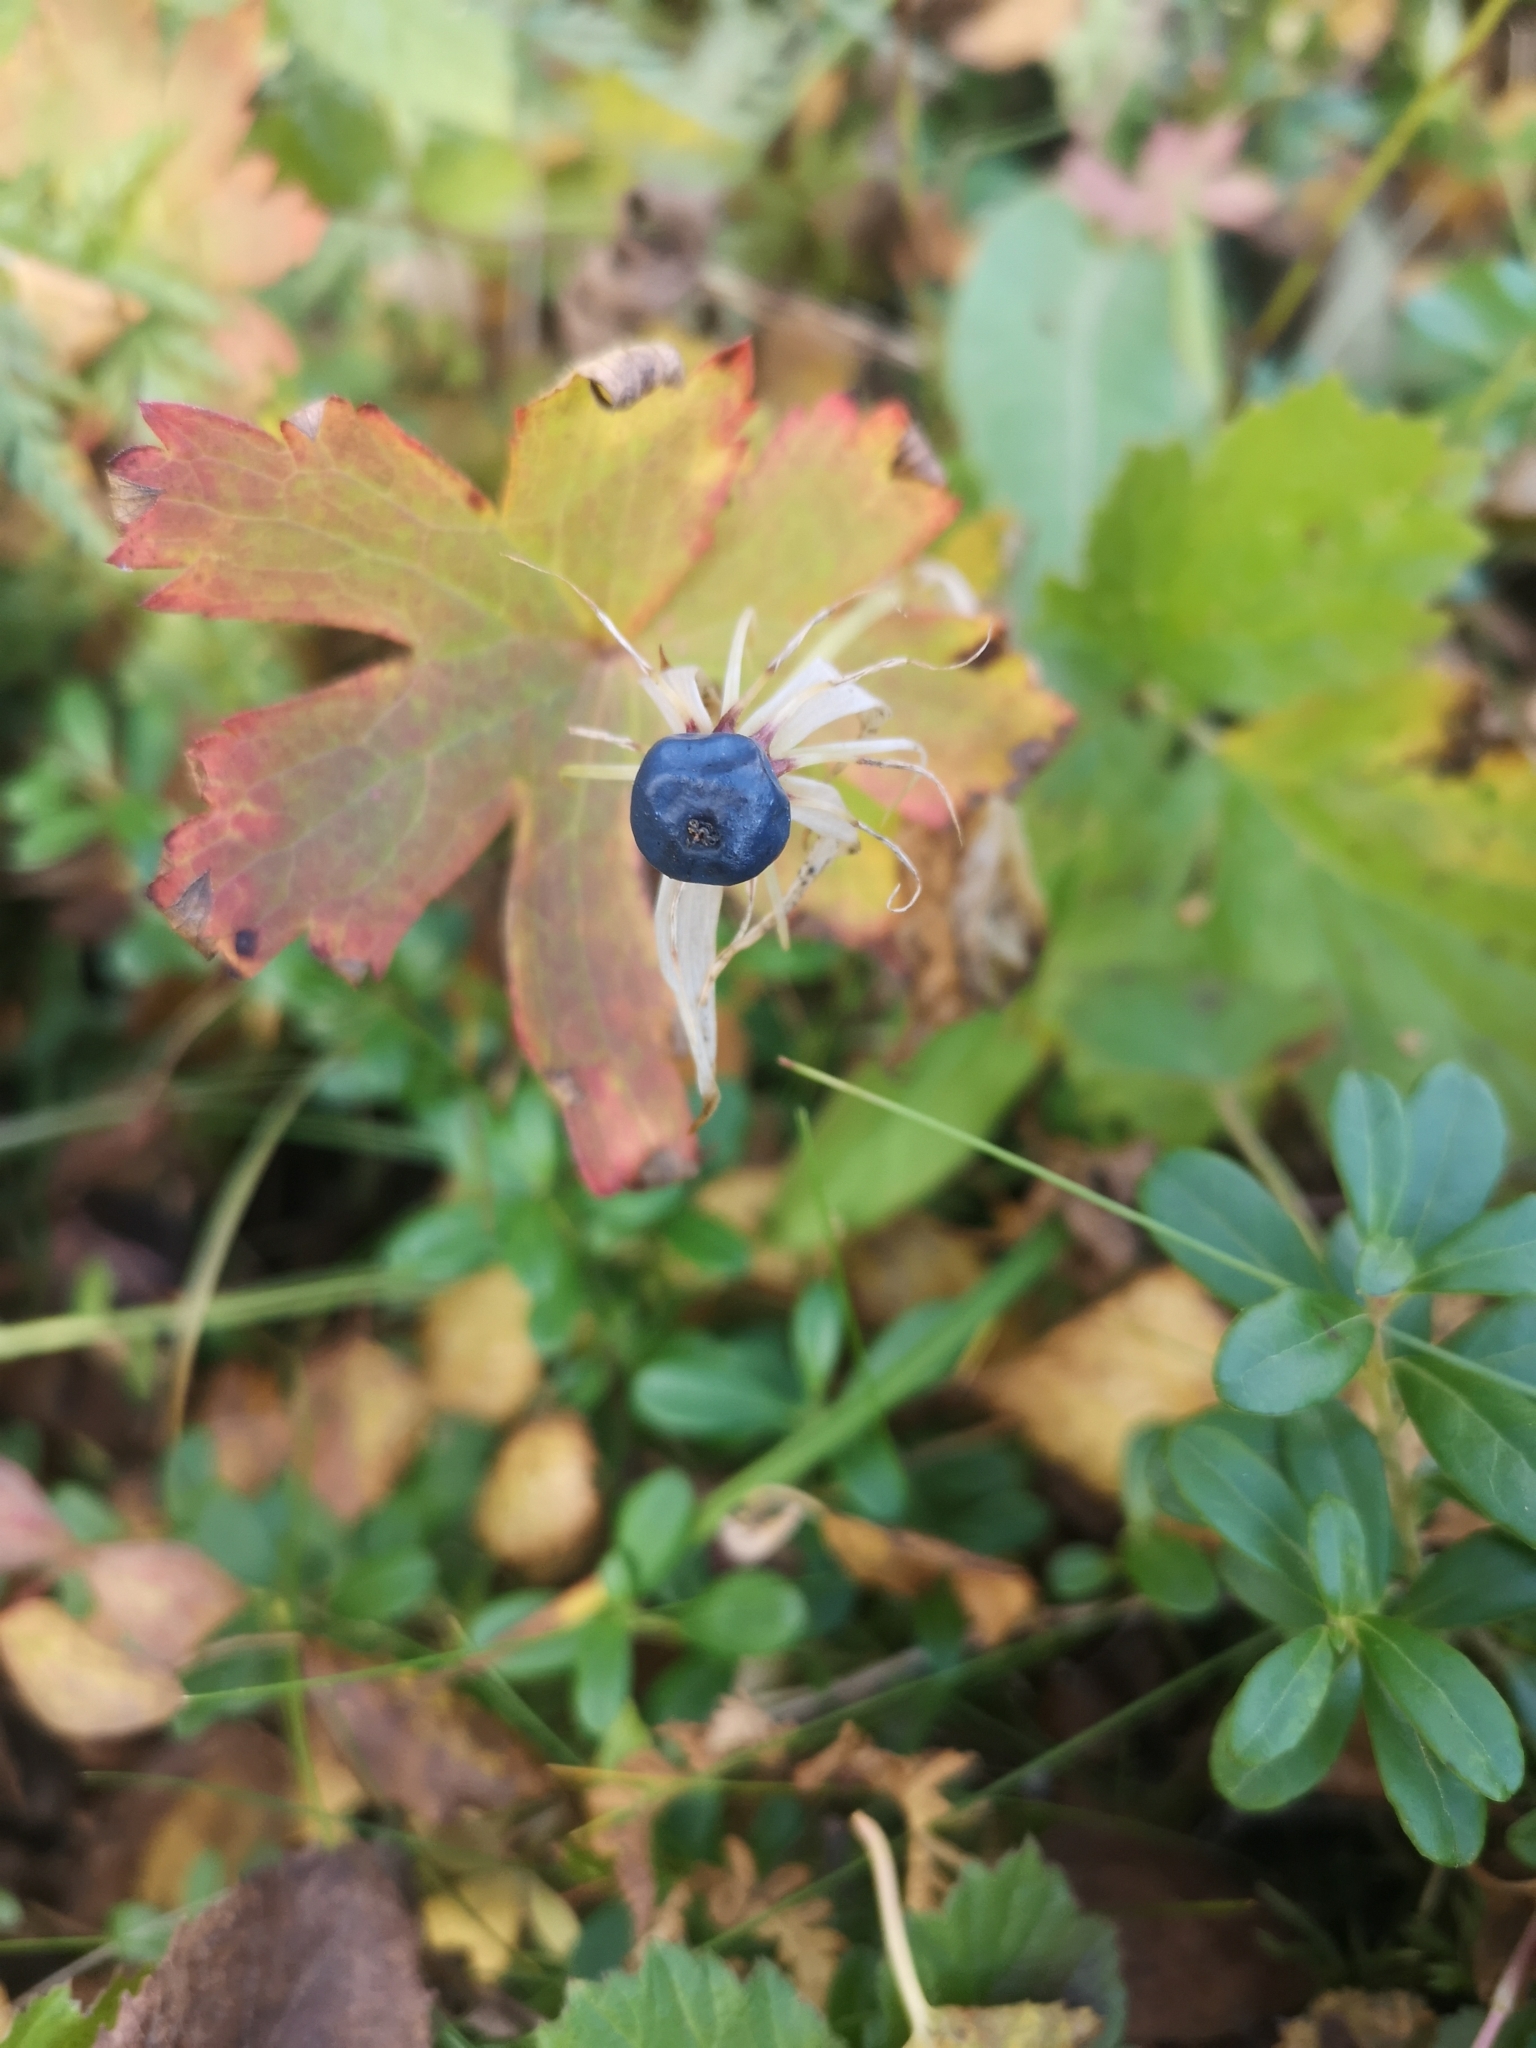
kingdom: Plantae
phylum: Tracheophyta
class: Liliopsida
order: Liliales
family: Melanthiaceae
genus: Paris
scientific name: Paris quadrifolia
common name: Herb-paris
